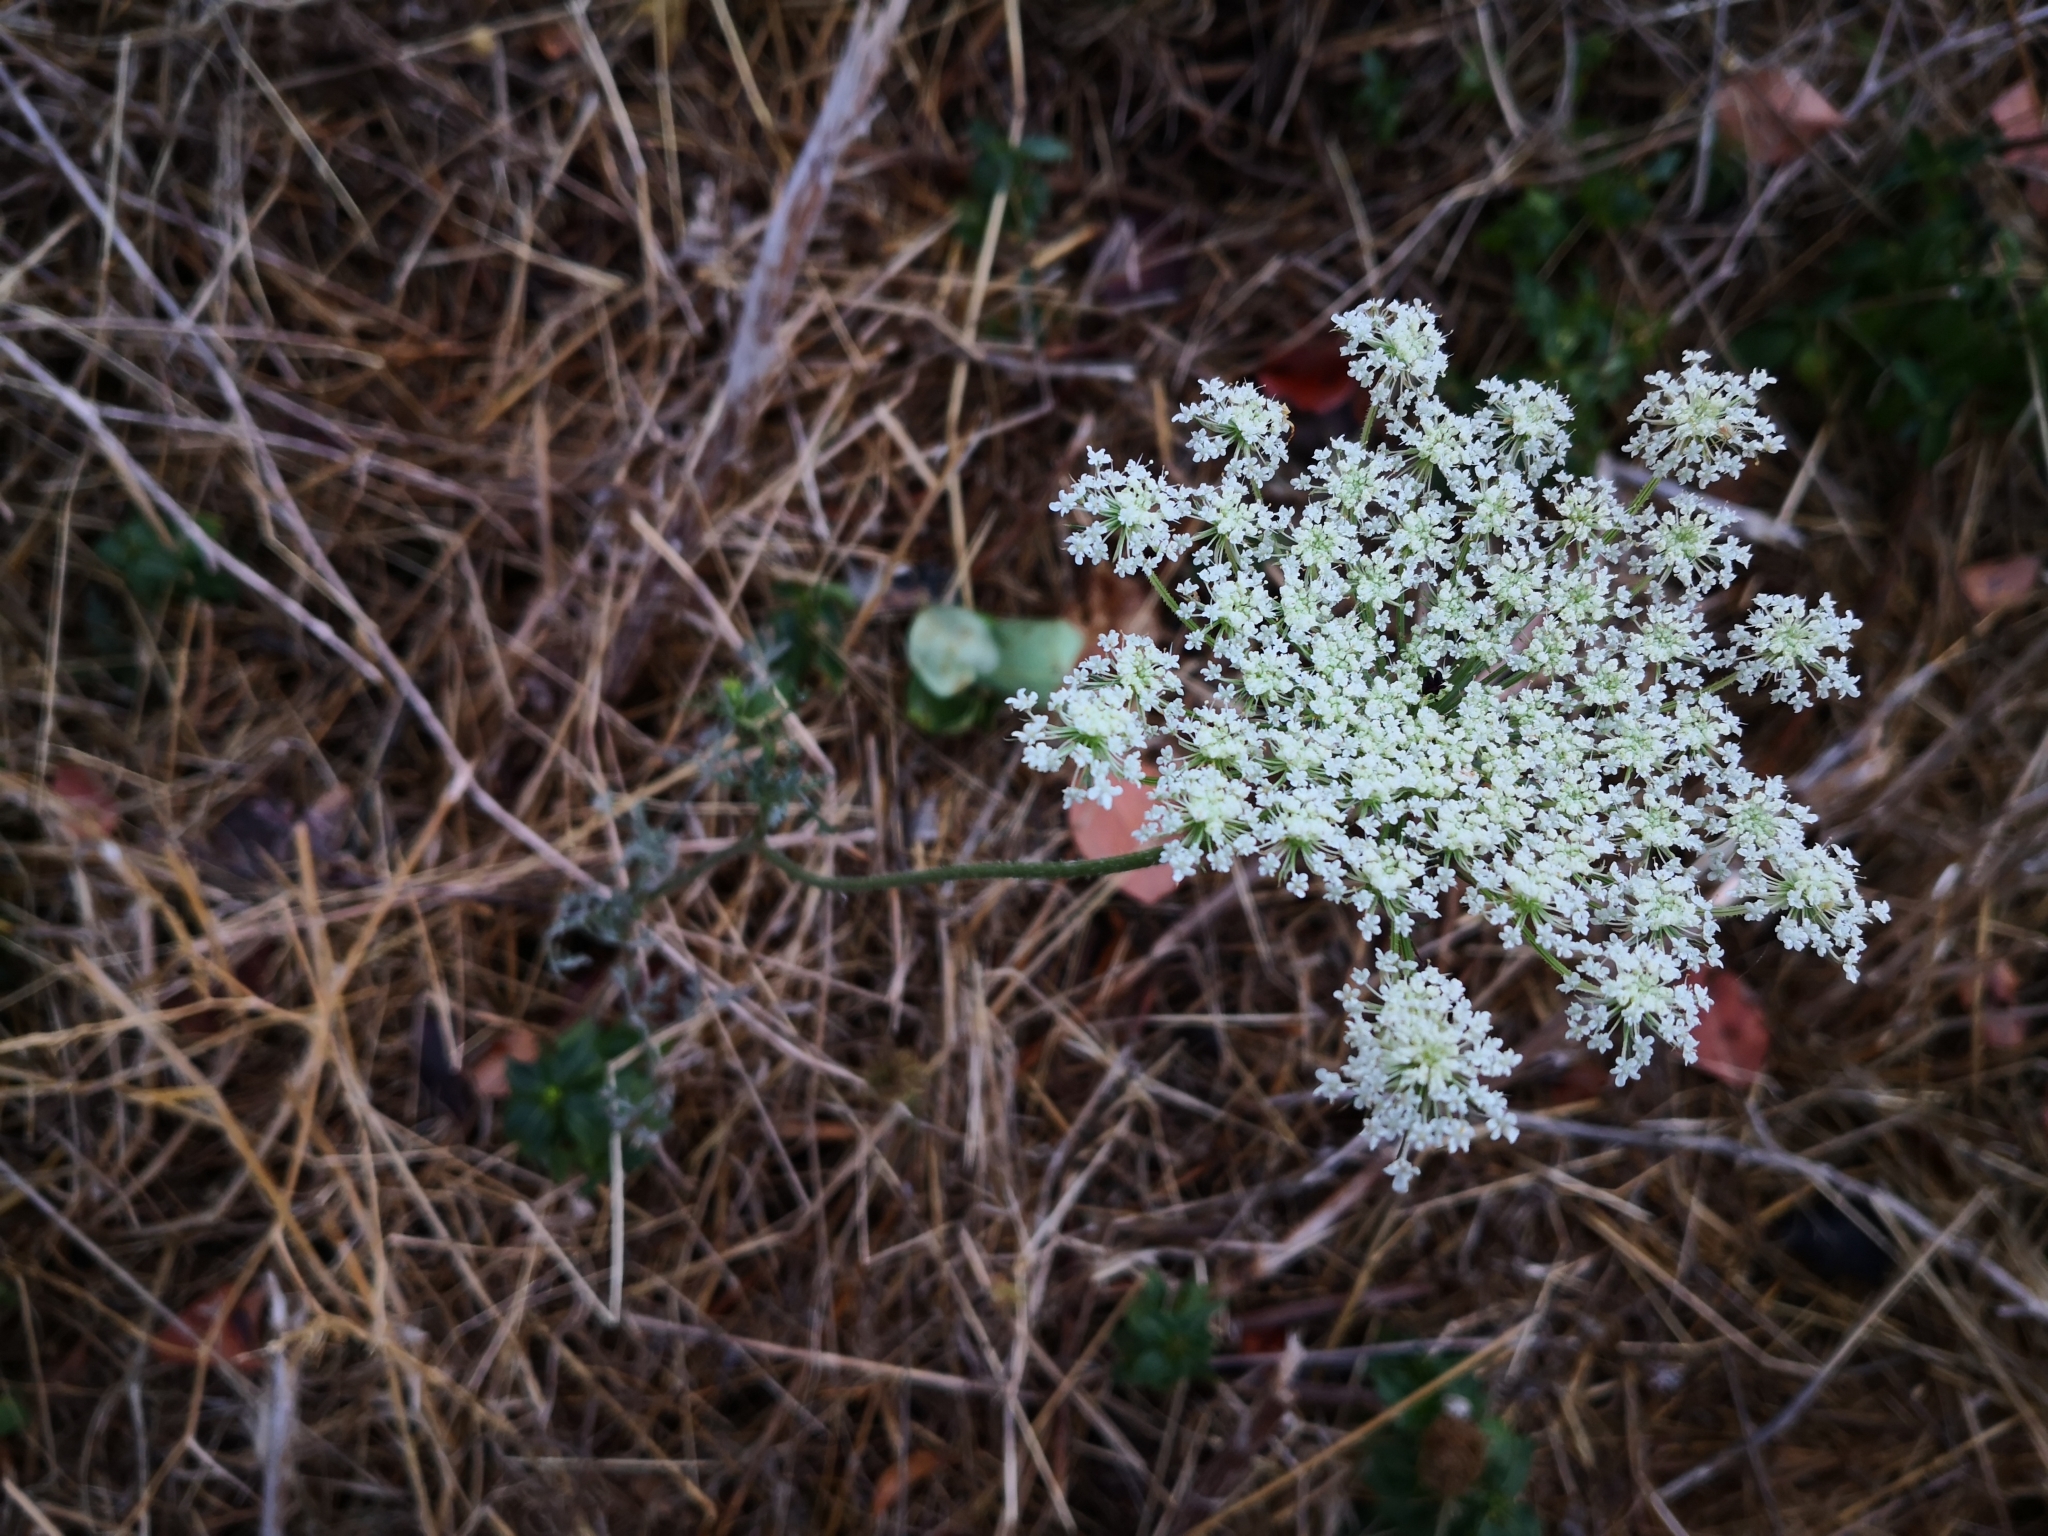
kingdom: Plantae
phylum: Tracheophyta
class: Magnoliopsida
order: Apiales
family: Apiaceae
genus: Daucus
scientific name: Daucus carota
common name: Wild carrot
